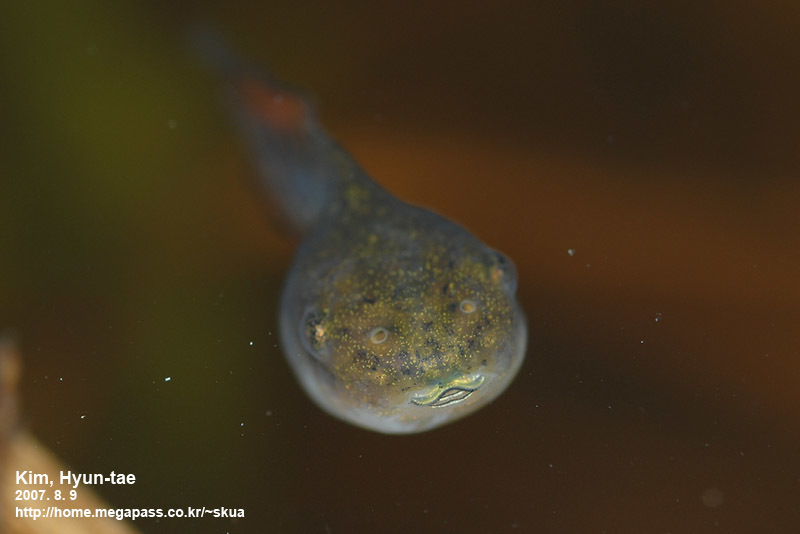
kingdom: Animalia
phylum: Chordata
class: Amphibia
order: Anura
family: Hylidae
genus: Dryophytes
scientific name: Dryophytes japonicus
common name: Japanese treefrog
